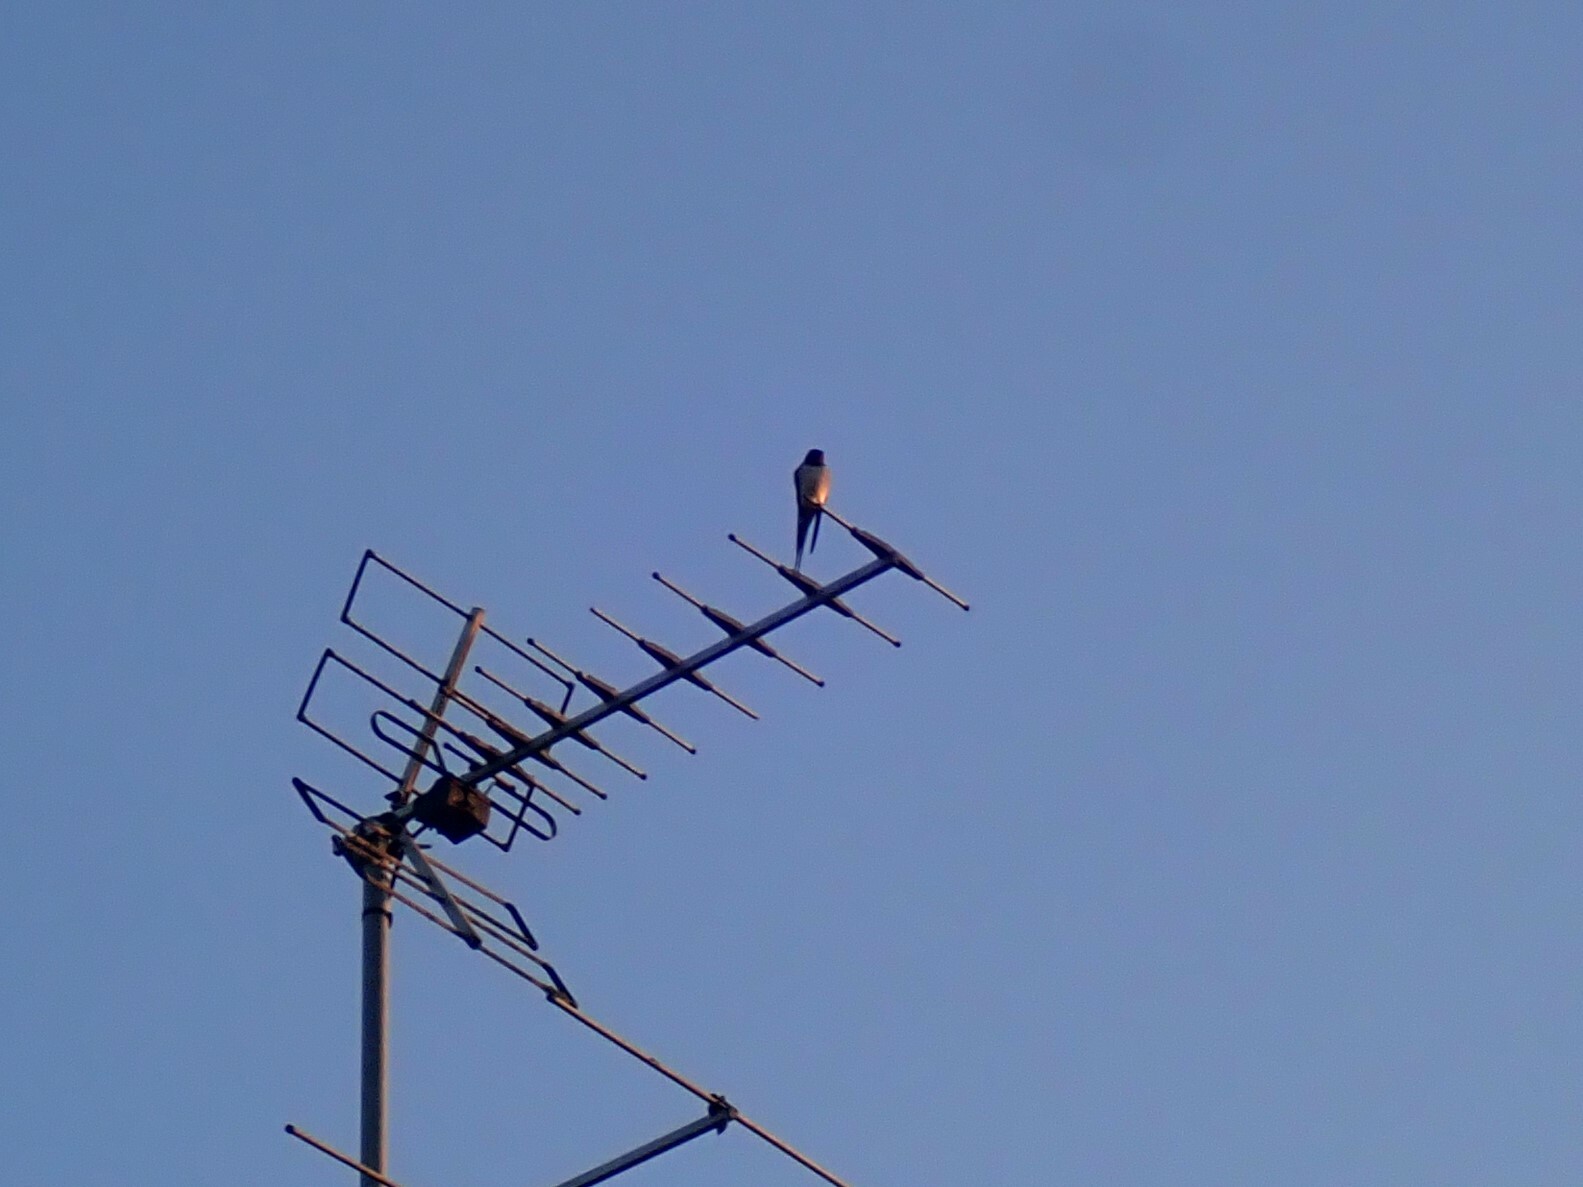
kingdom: Animalia
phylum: Chordata
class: Aves
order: Passeriformes
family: Hirundinidae
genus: Hirundo
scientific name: Hirundo rustica
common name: Barn swallow
